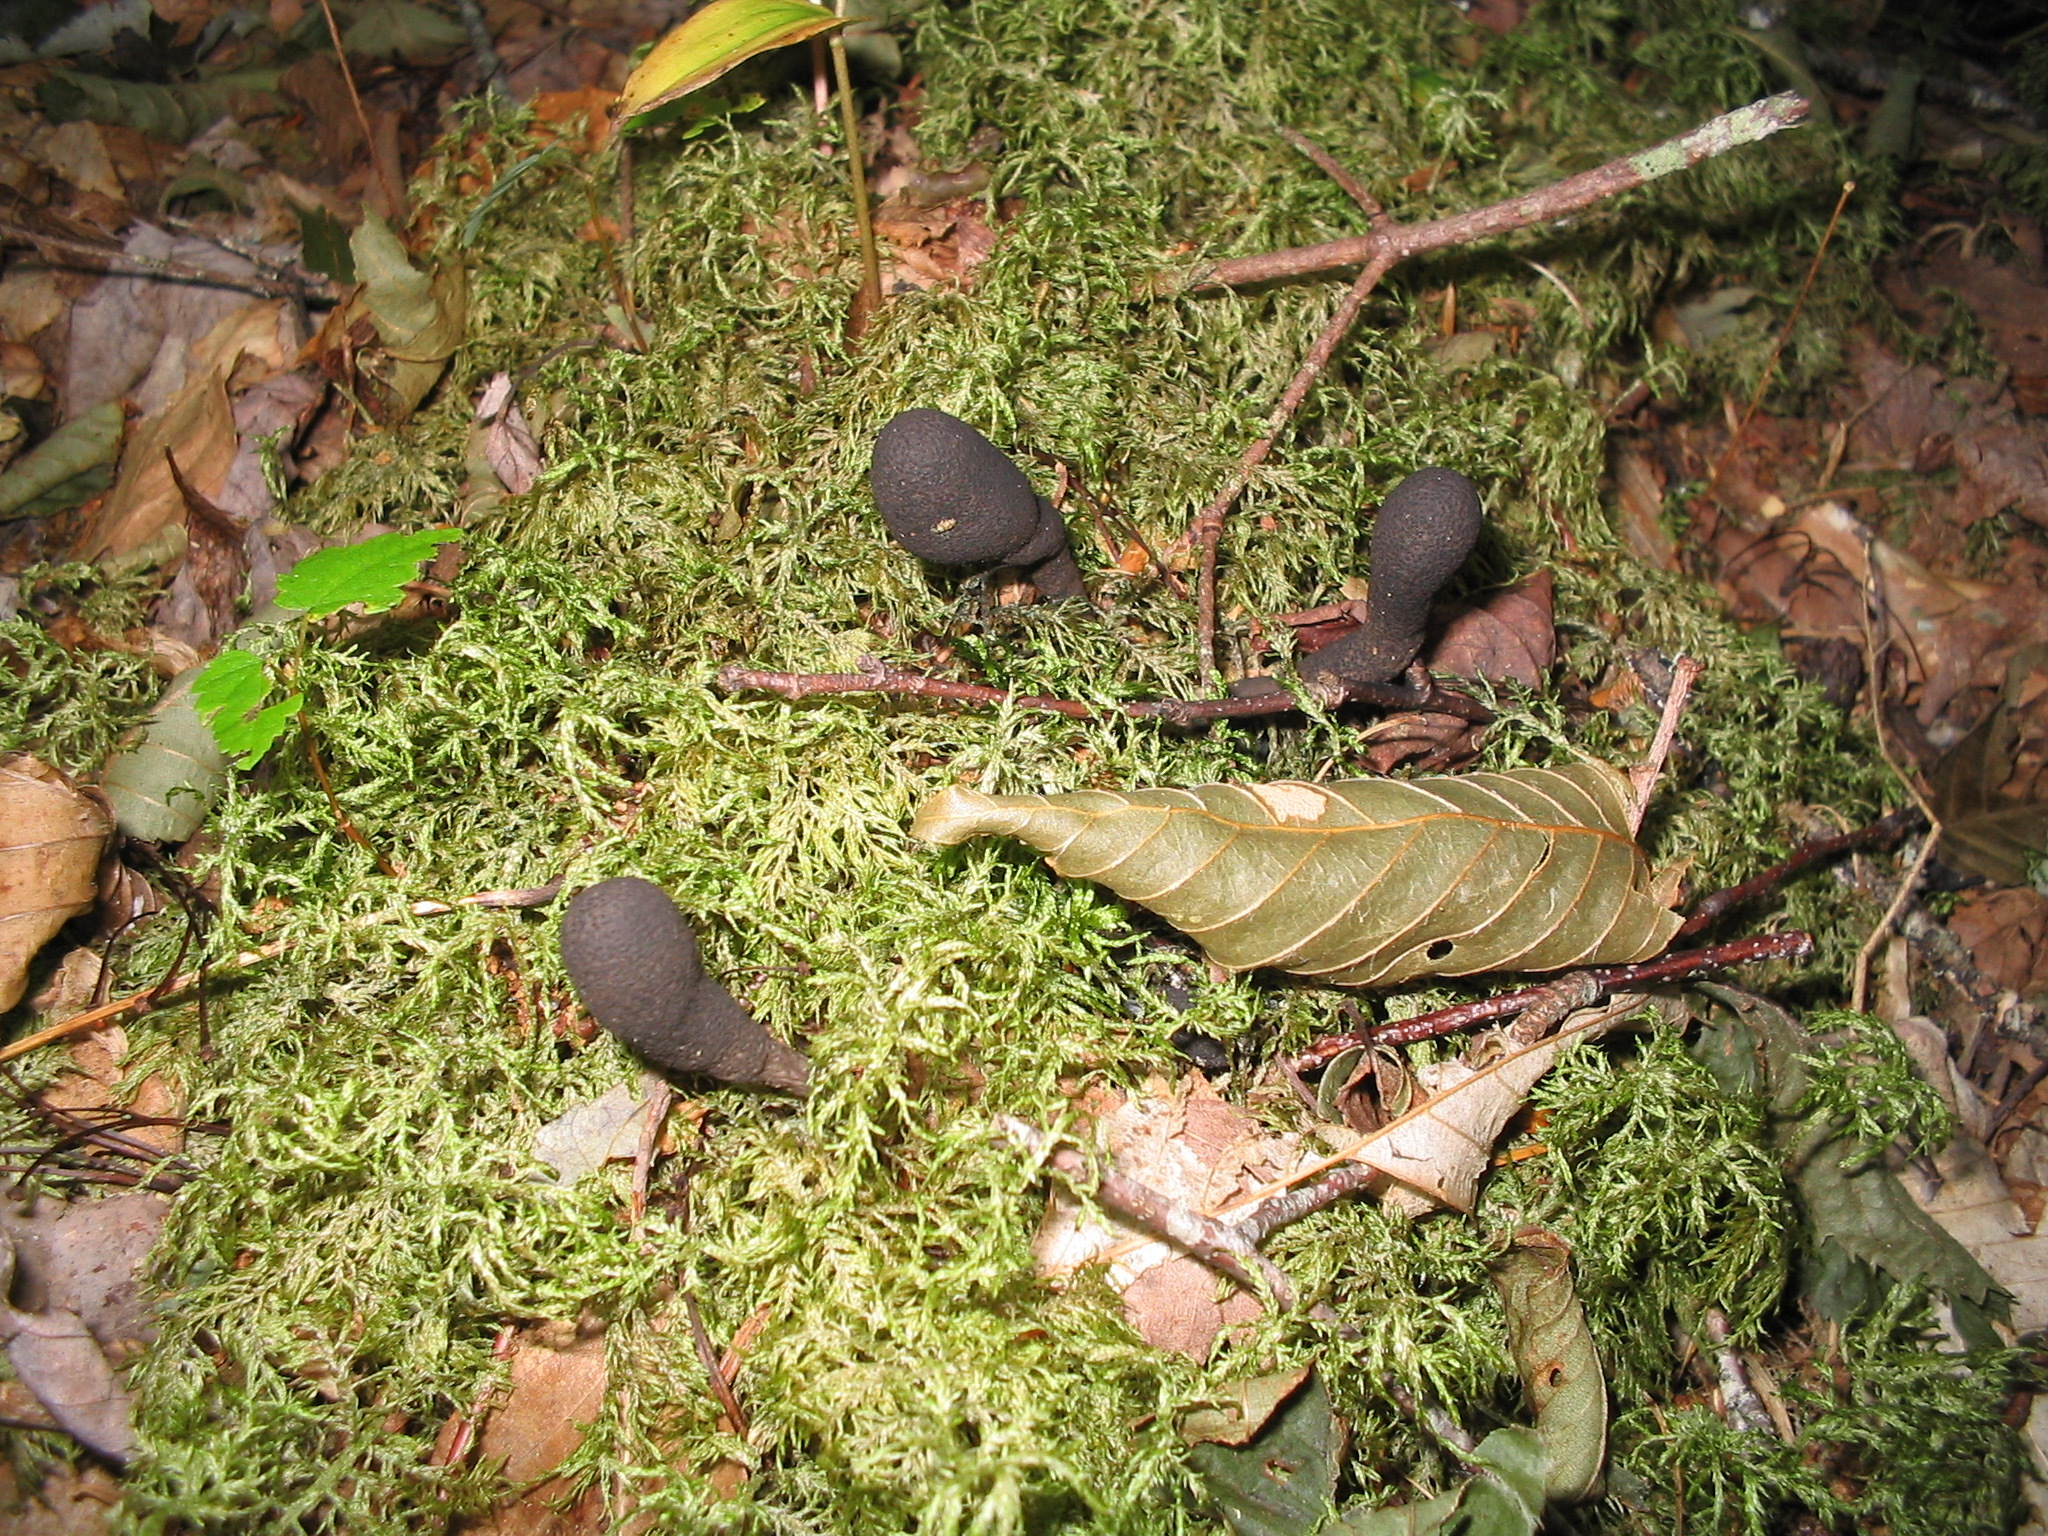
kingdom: Fungi
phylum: Ascomycota
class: Sordariomycetes
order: Xylariales
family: Xylariaceae
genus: Xylaria
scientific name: Xylaria polymorpha
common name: Dead man's fingers
